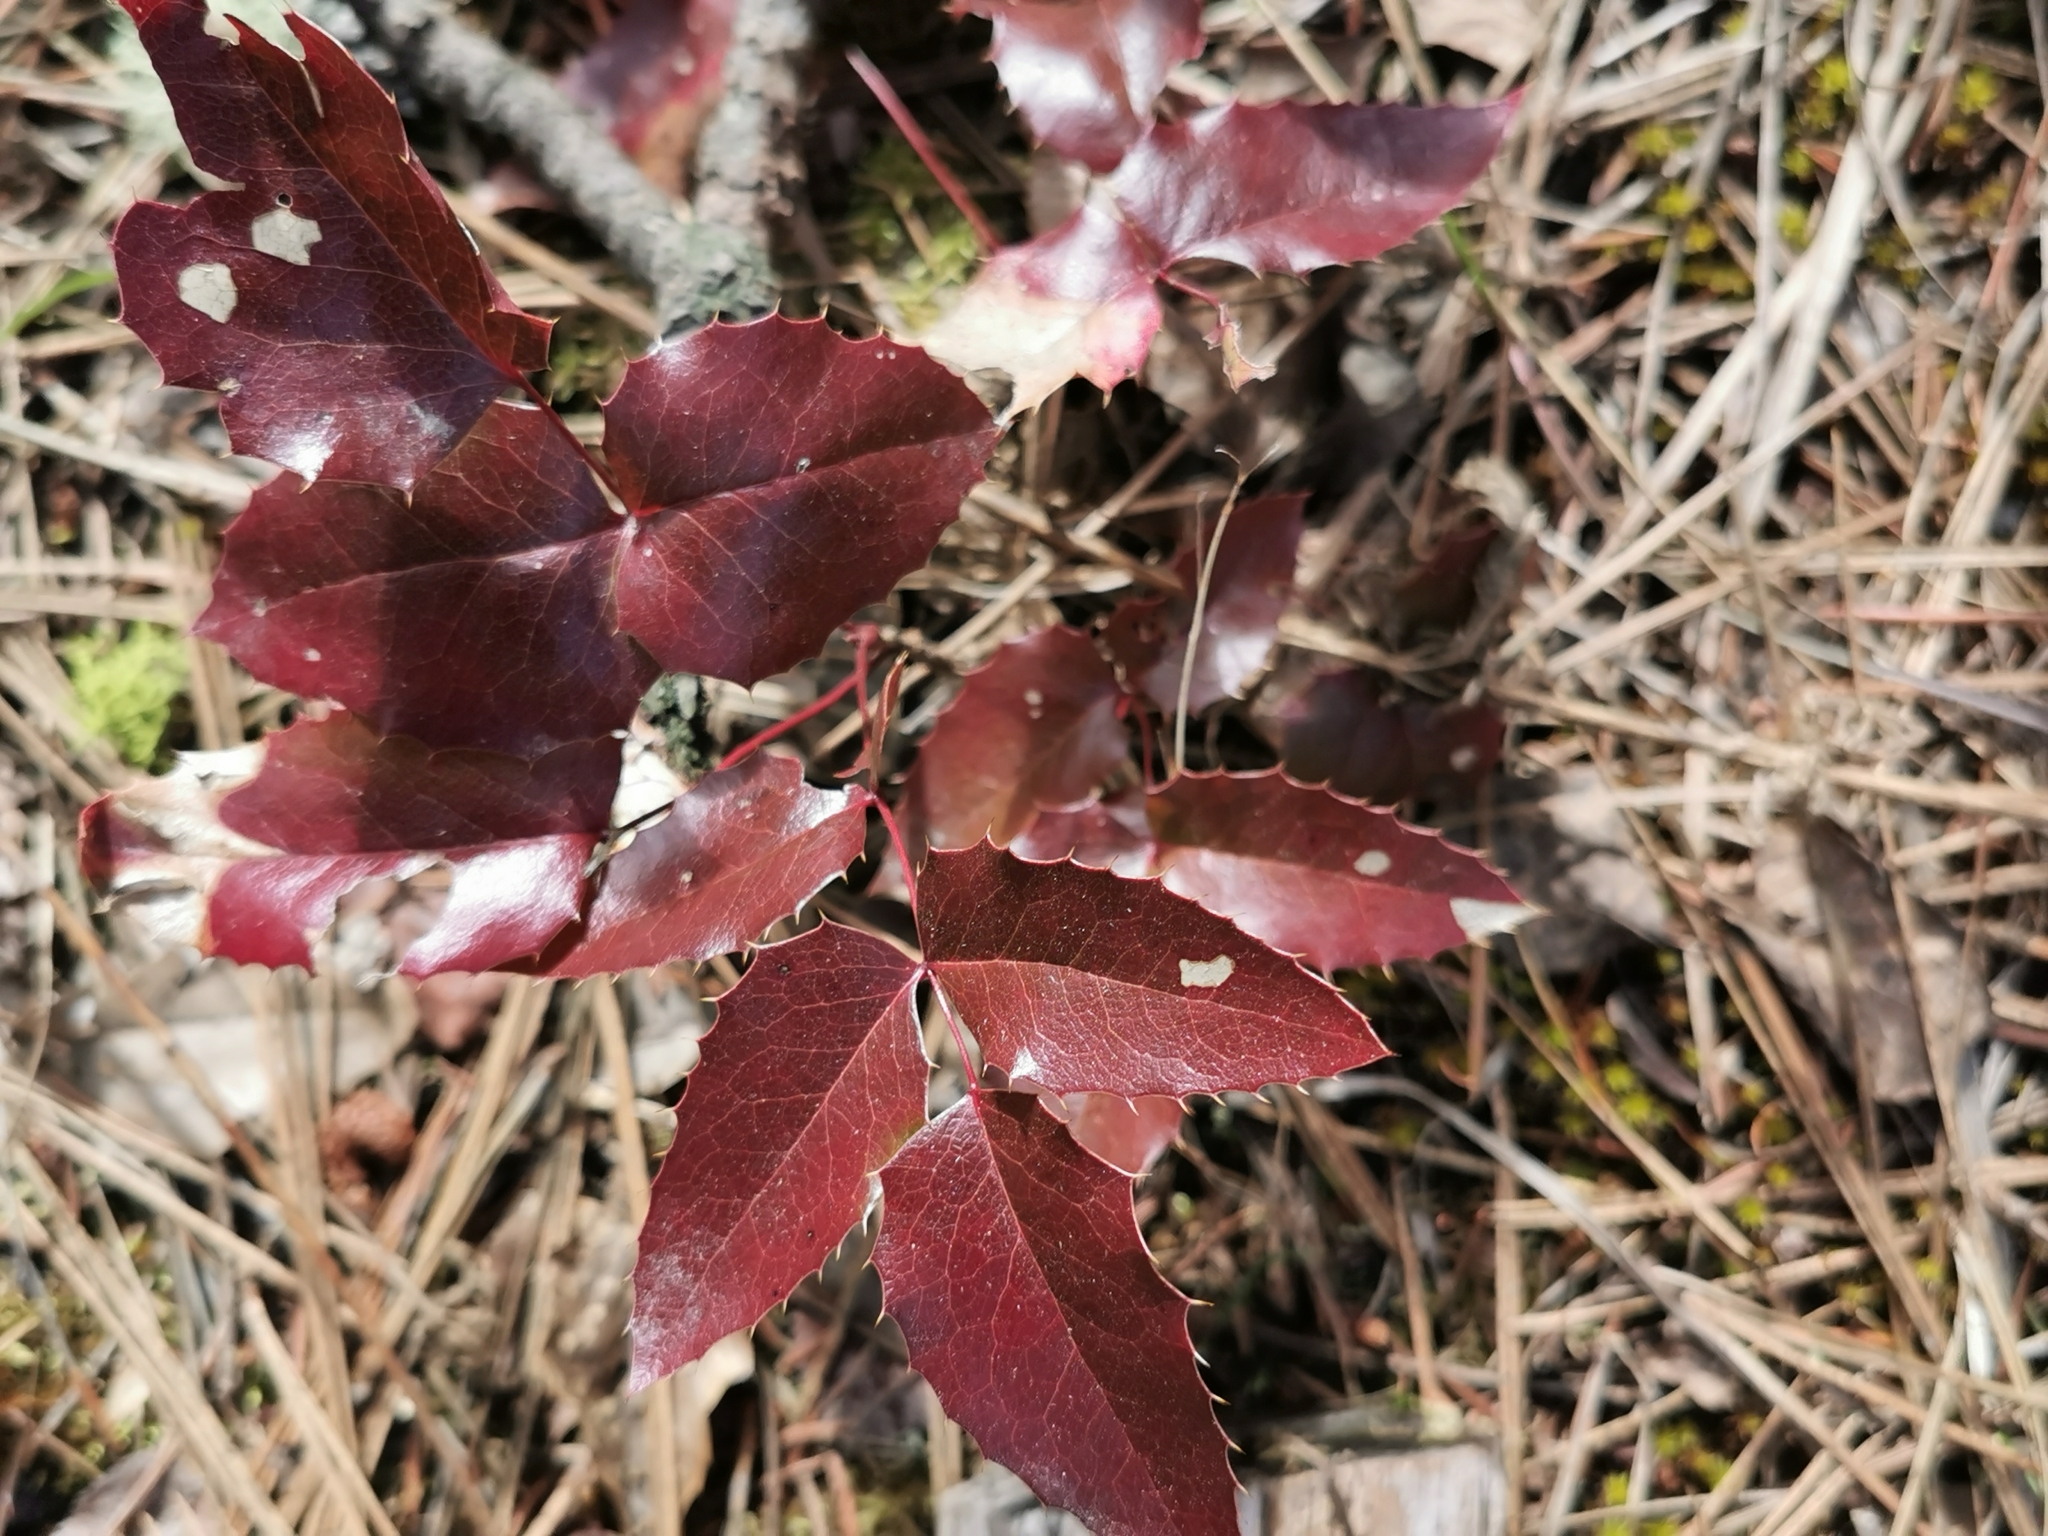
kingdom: Plantae
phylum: Tracheophyta
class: Magnoliopsida
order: Ranunculales
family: Berberidaceae
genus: Mahonia
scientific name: Mahonia aquifolium
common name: Oregon-grape
